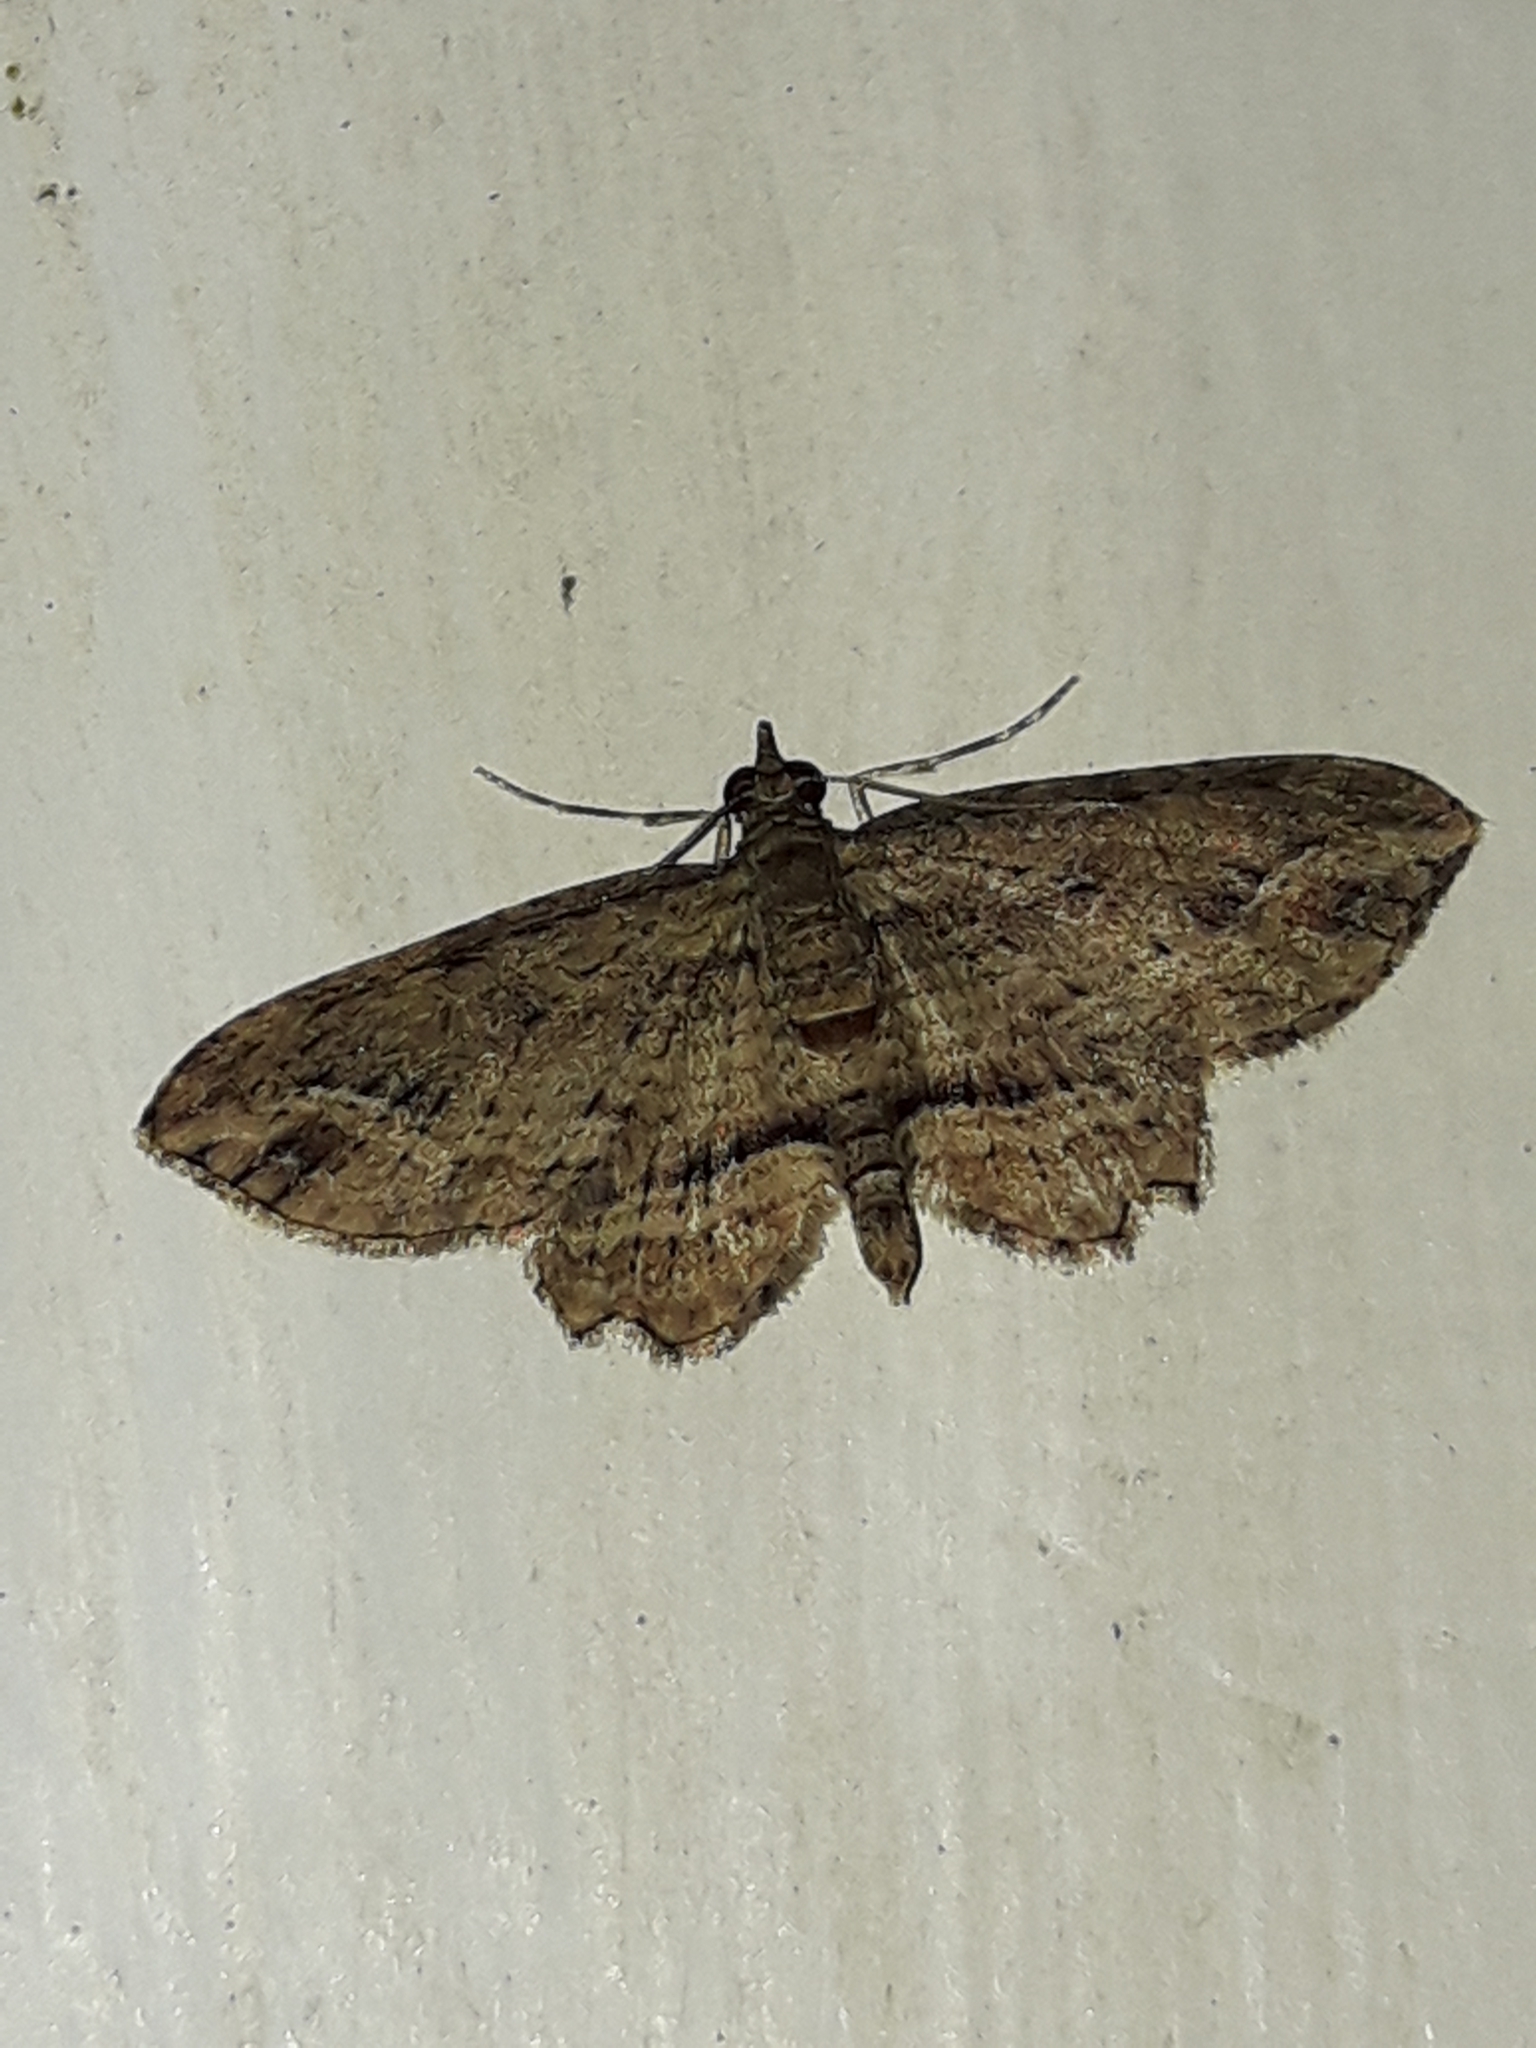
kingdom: Animalia
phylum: Arthropoda
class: Insecta
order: Lepidoptera
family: Geometridae
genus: Chloroclystis
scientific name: Chloroclystis filata
